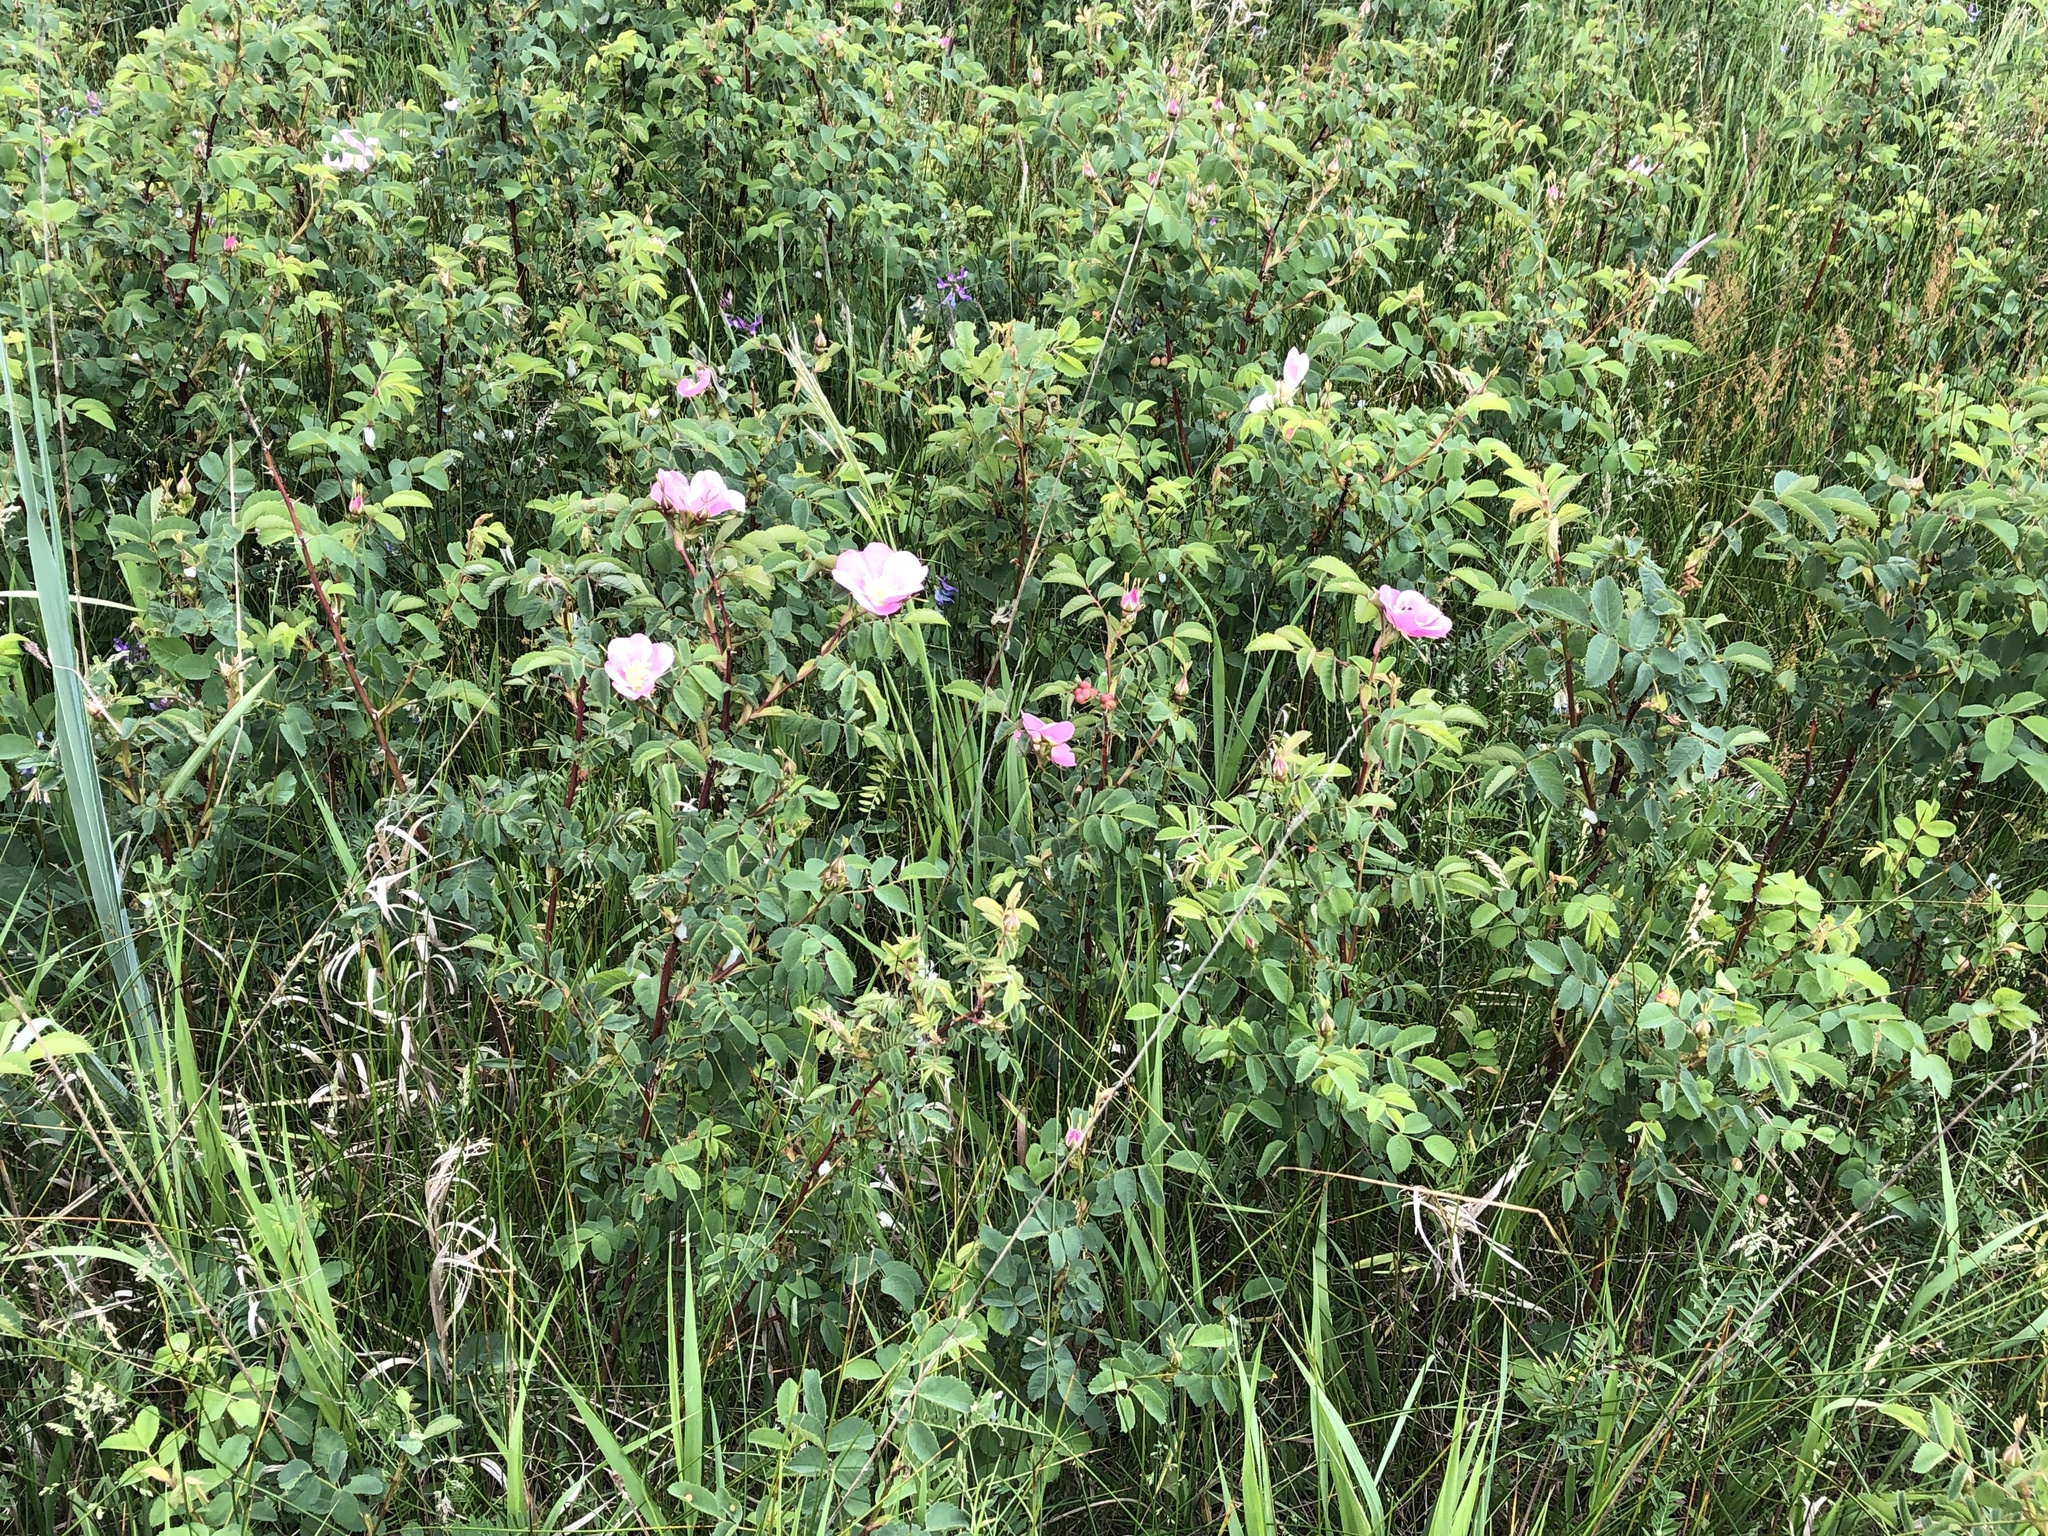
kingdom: Plantae
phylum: Tracheophyta
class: Magnoliopsida
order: Rosales
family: Rosaceae
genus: Rosa
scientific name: Rosa nutkana
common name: Nootka rose
